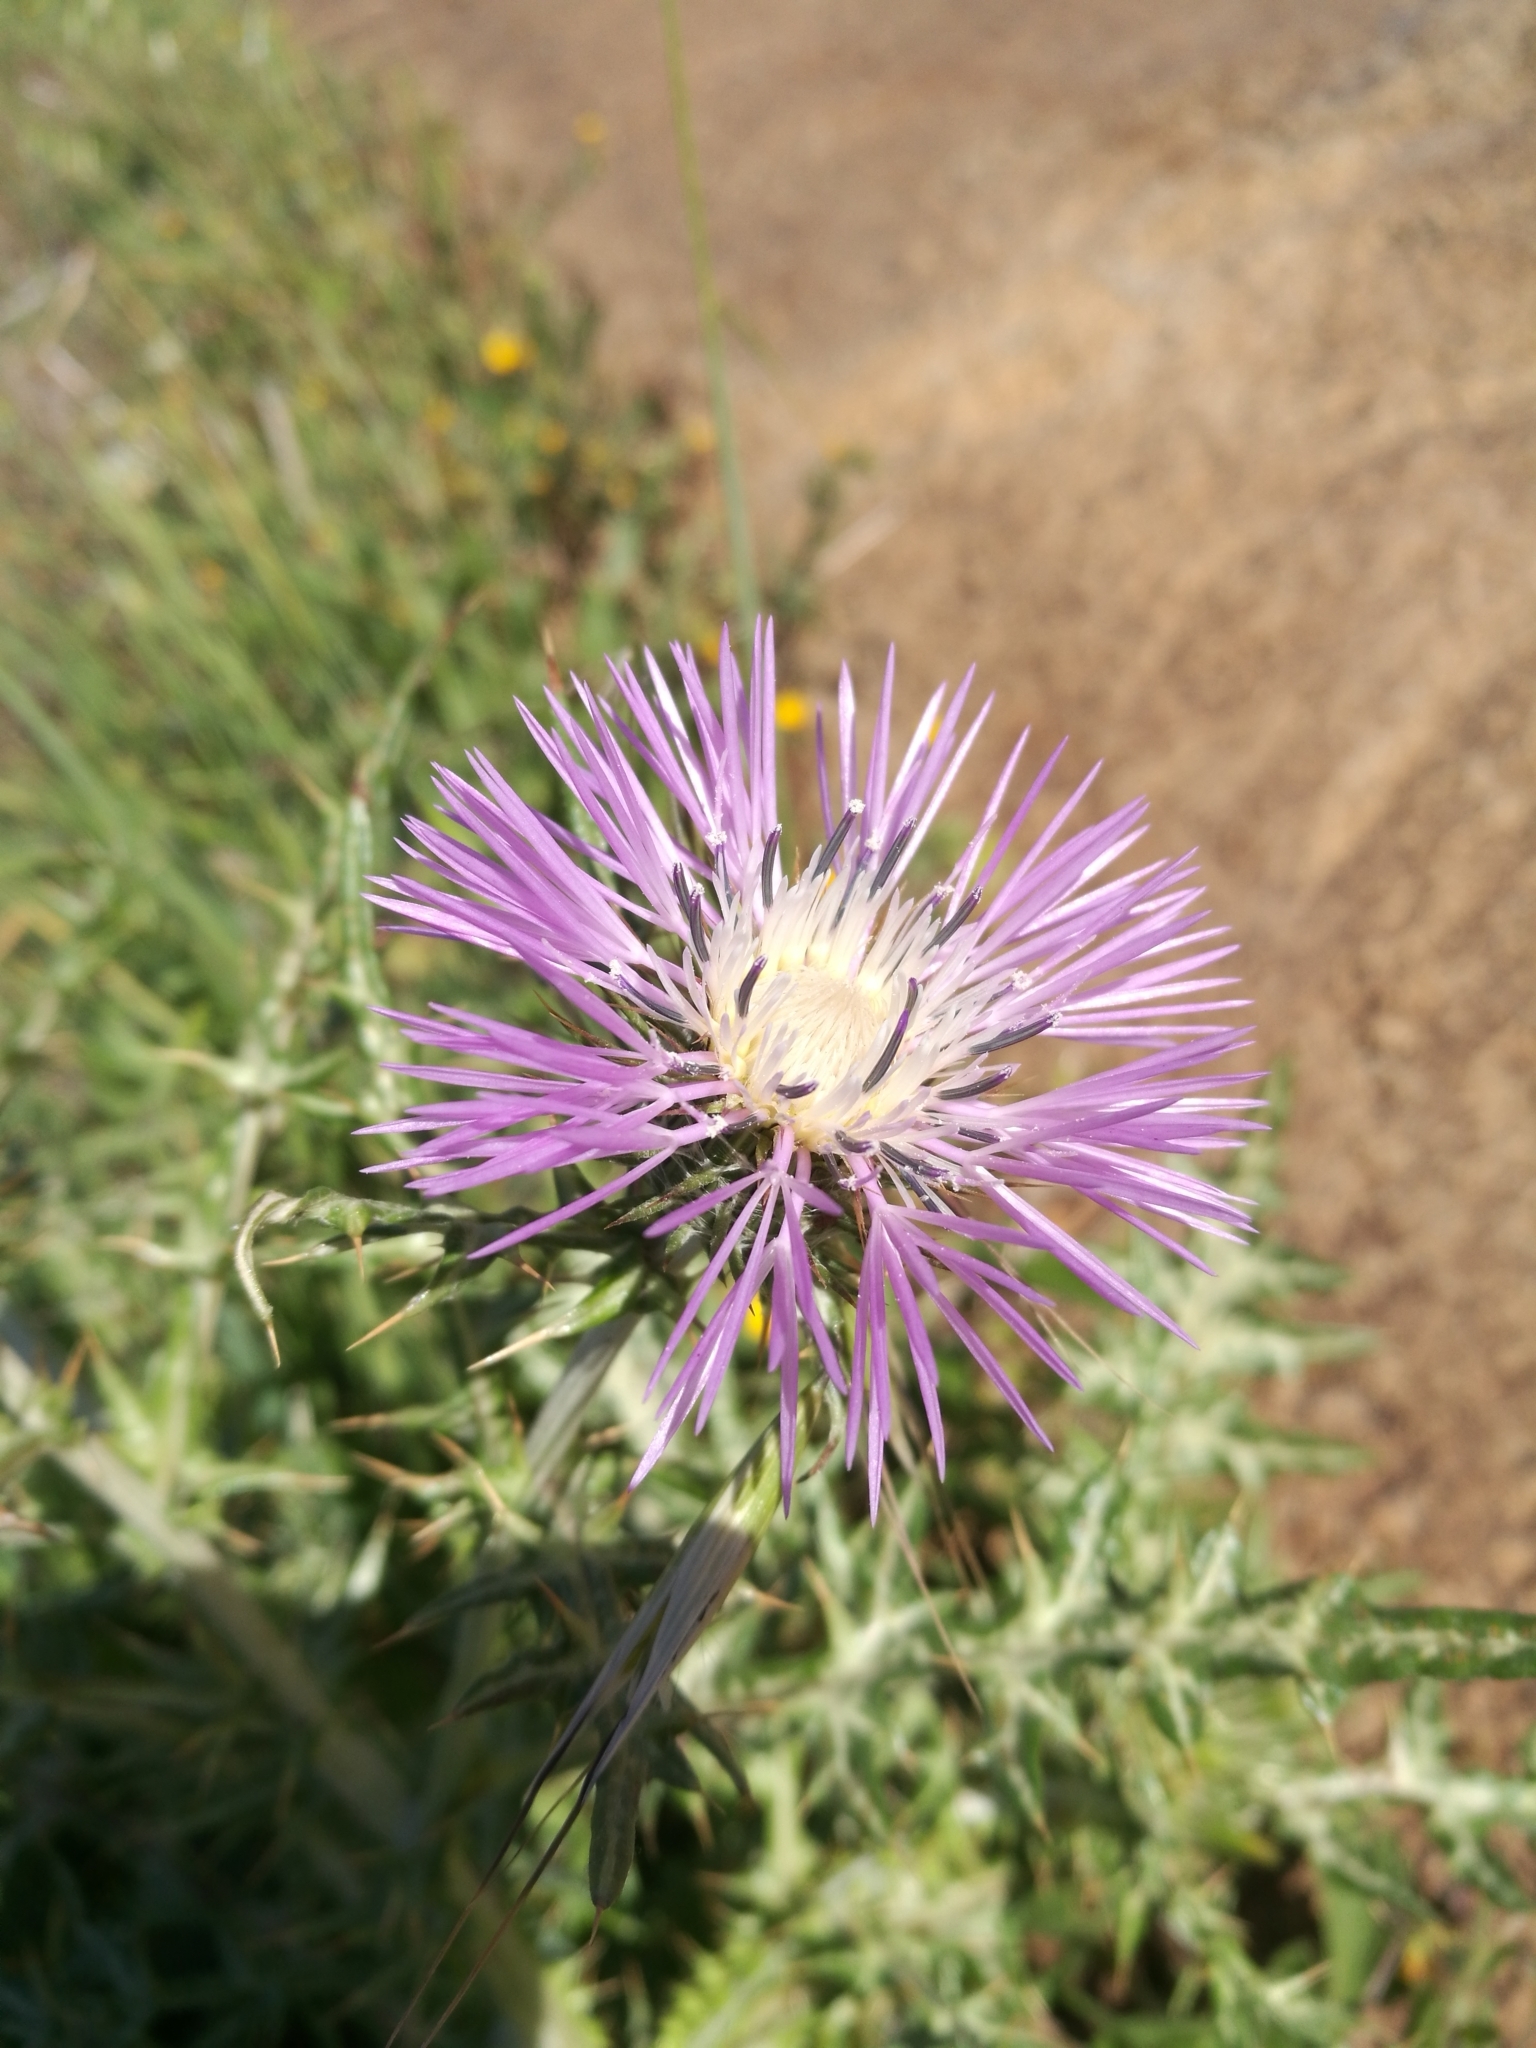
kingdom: Plantae
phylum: Tracheophyta
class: Magnoliopsida
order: Asterales
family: Asteraceae
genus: Galactites
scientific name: Galactites tomentosa
